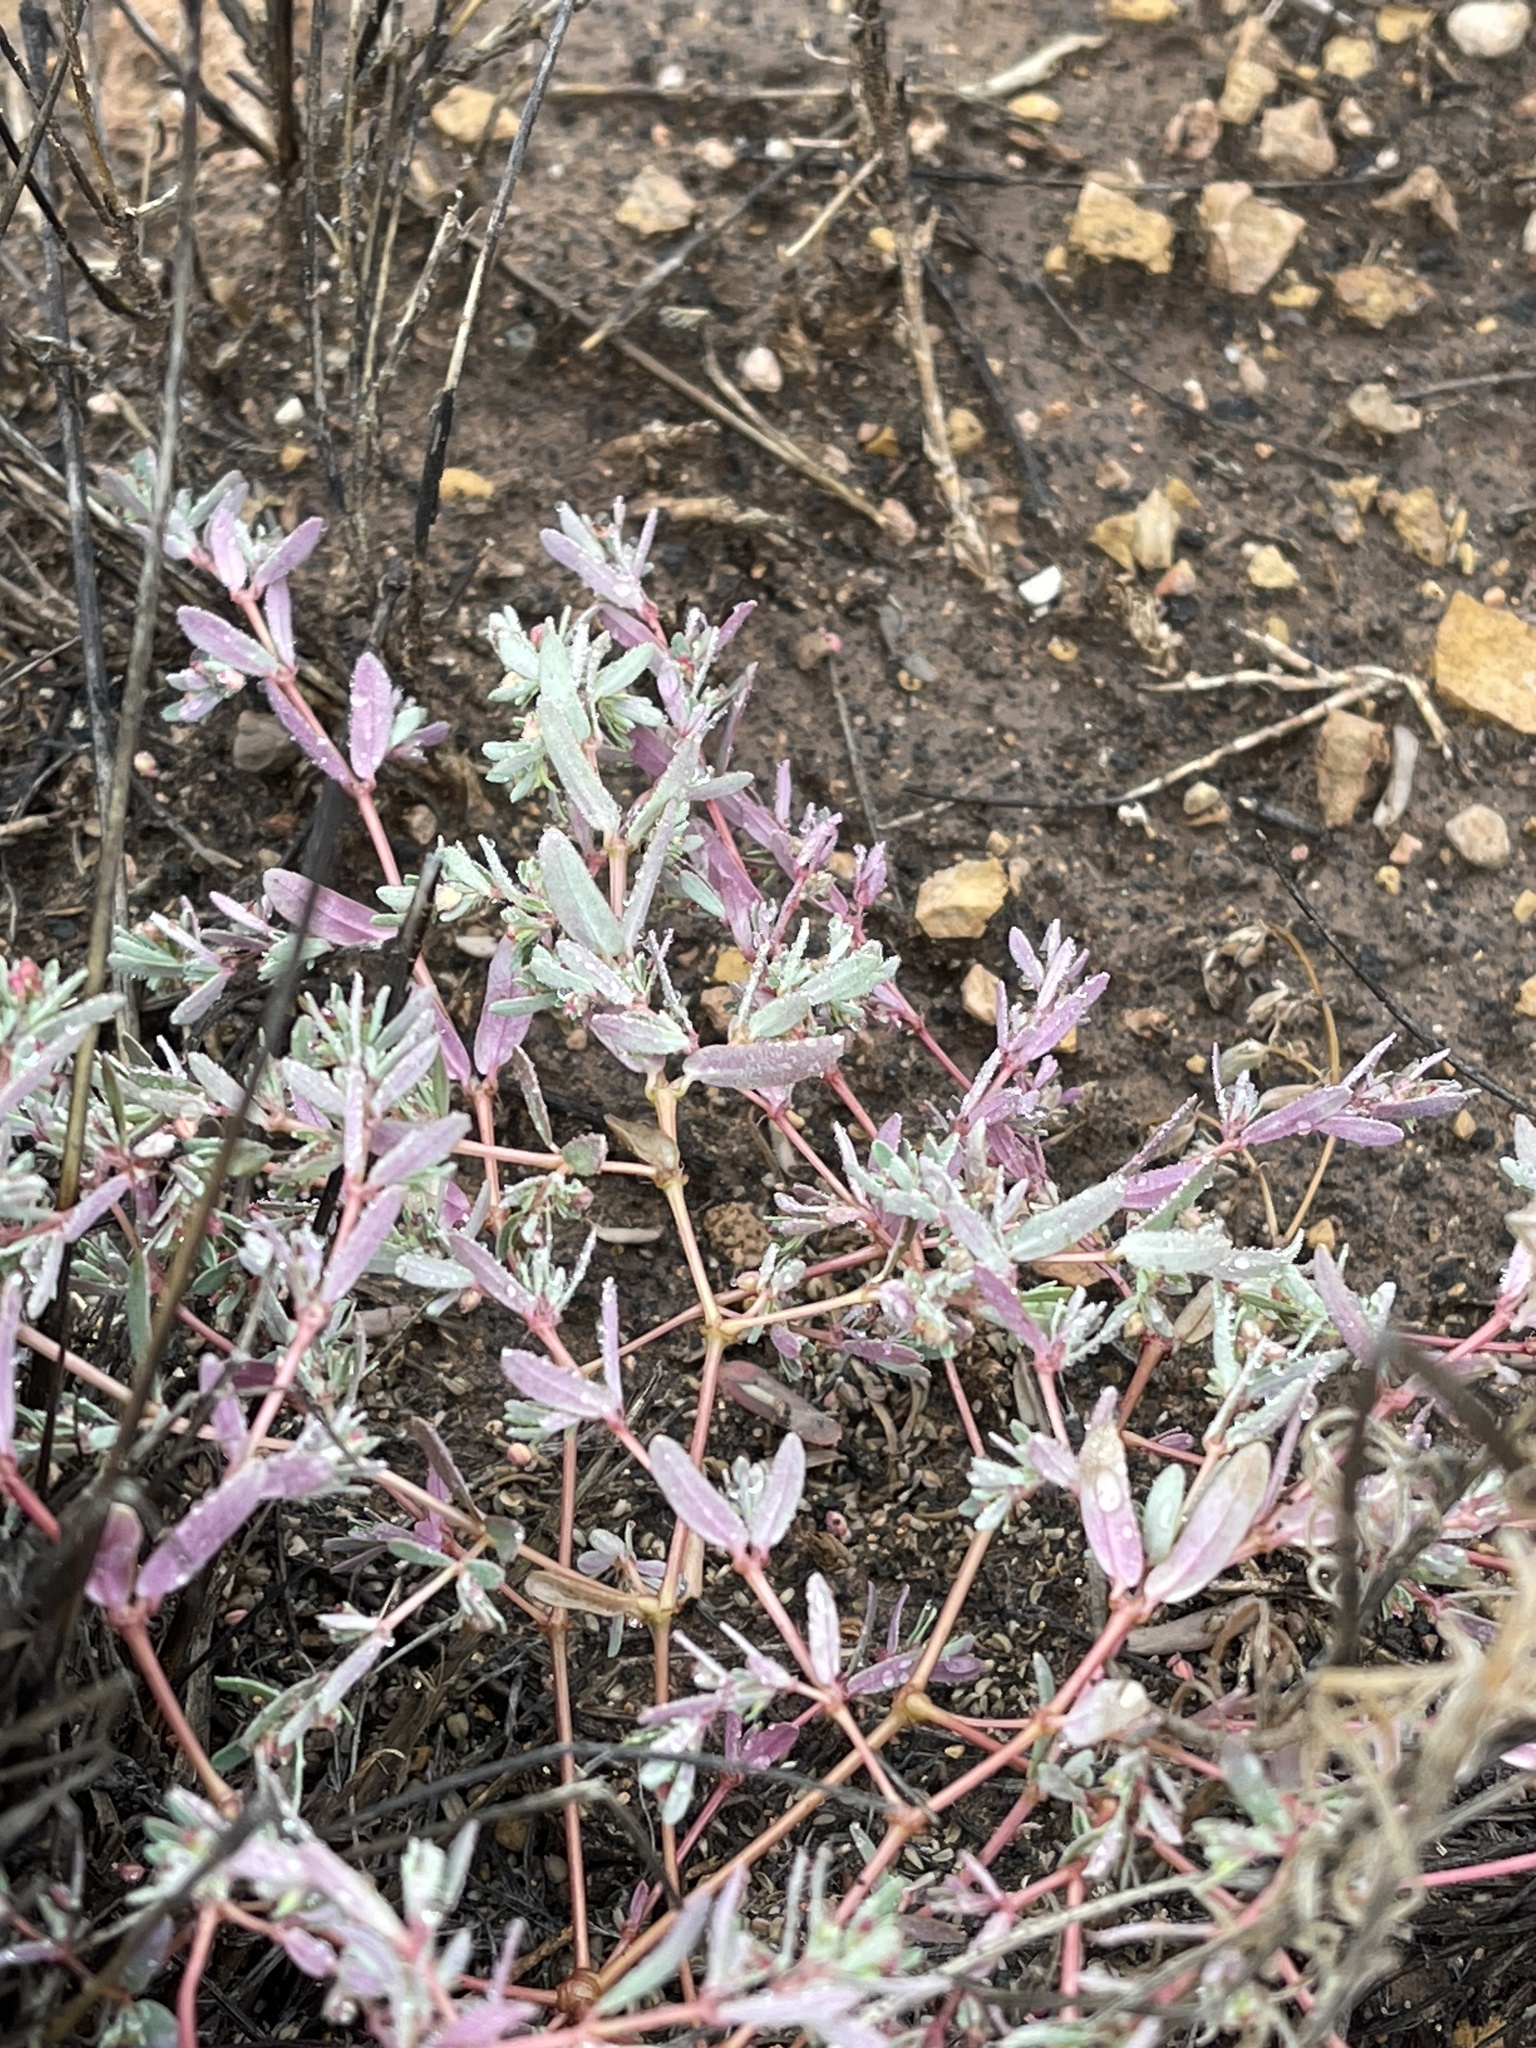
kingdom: Plantae
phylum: Tracheophyta
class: Magnoliopsida
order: Malpighiales
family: Euphorbiaceae
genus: Euphorbia
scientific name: Euphorbia serpillifolia
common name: Thyme-leaf spurge
